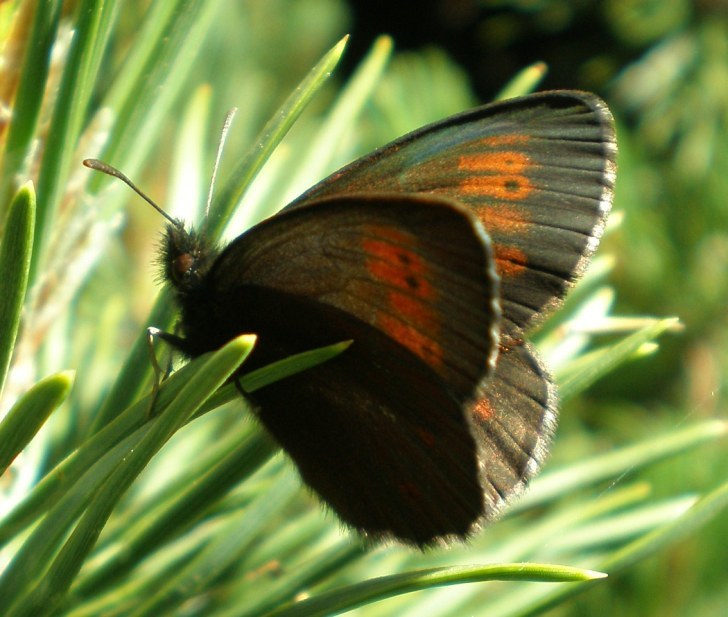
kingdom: Animalia
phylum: Arthropoda
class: Insecta
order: Lepidoptera
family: Nymphalidae
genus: Erebia
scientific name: Erebia euryale
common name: Large ringlet
